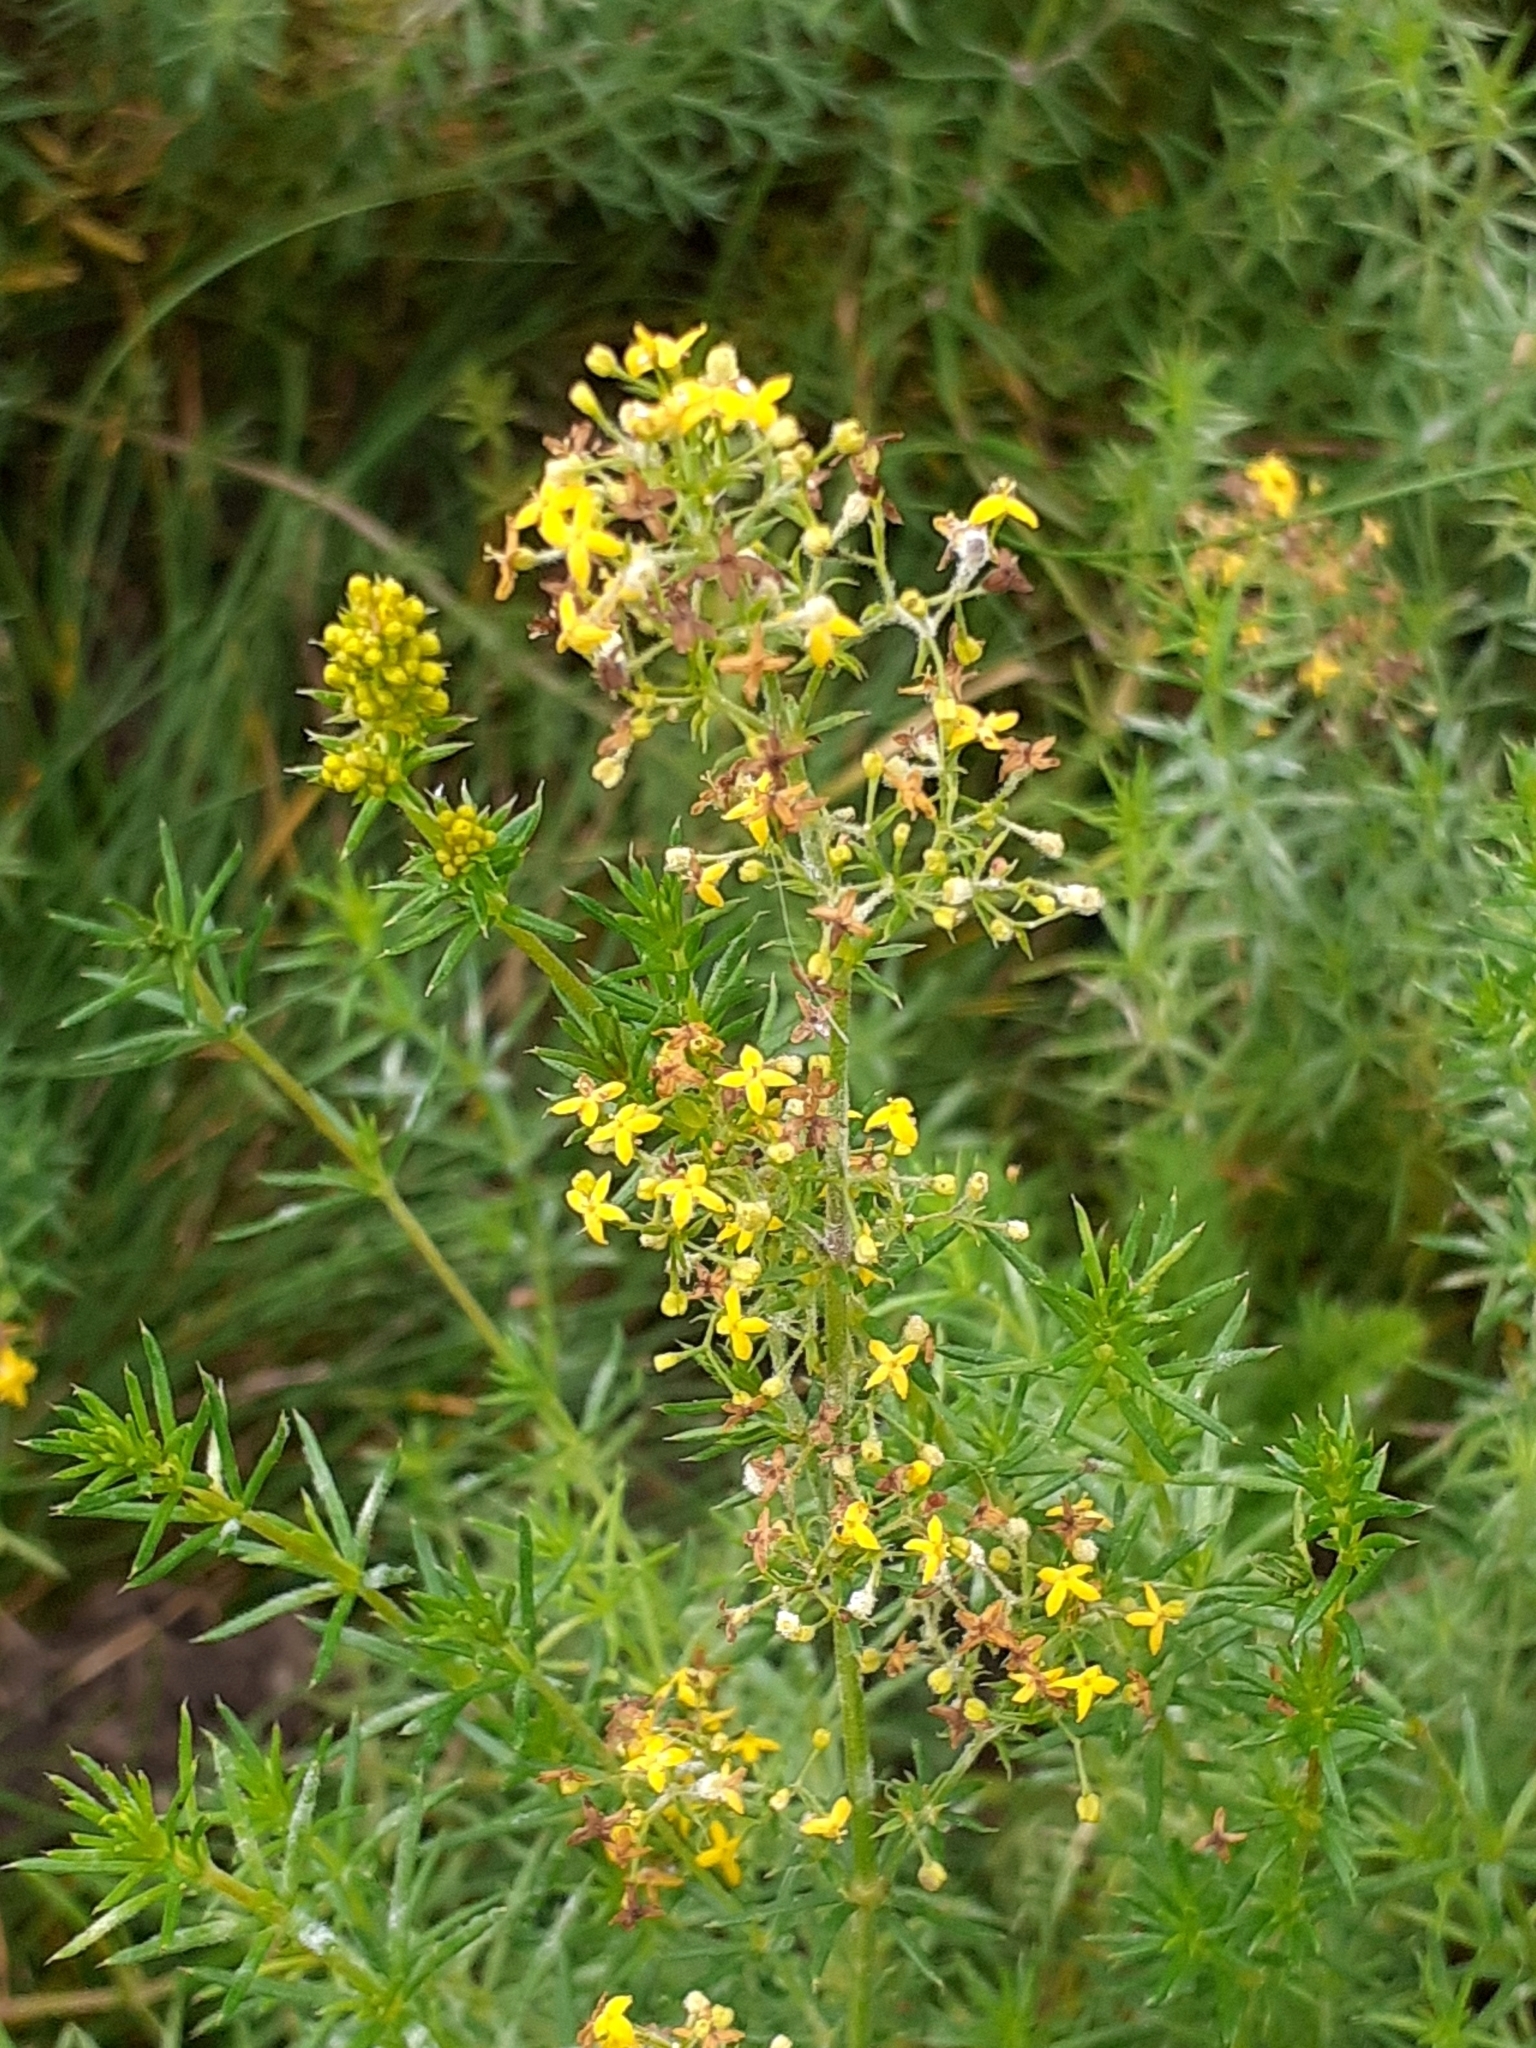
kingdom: Plantae
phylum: Tracheophyta
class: Magnoliopsida
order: Gentianales
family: Rubiaceae
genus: Galium
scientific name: Galium verum
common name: Lady's bedstraw
